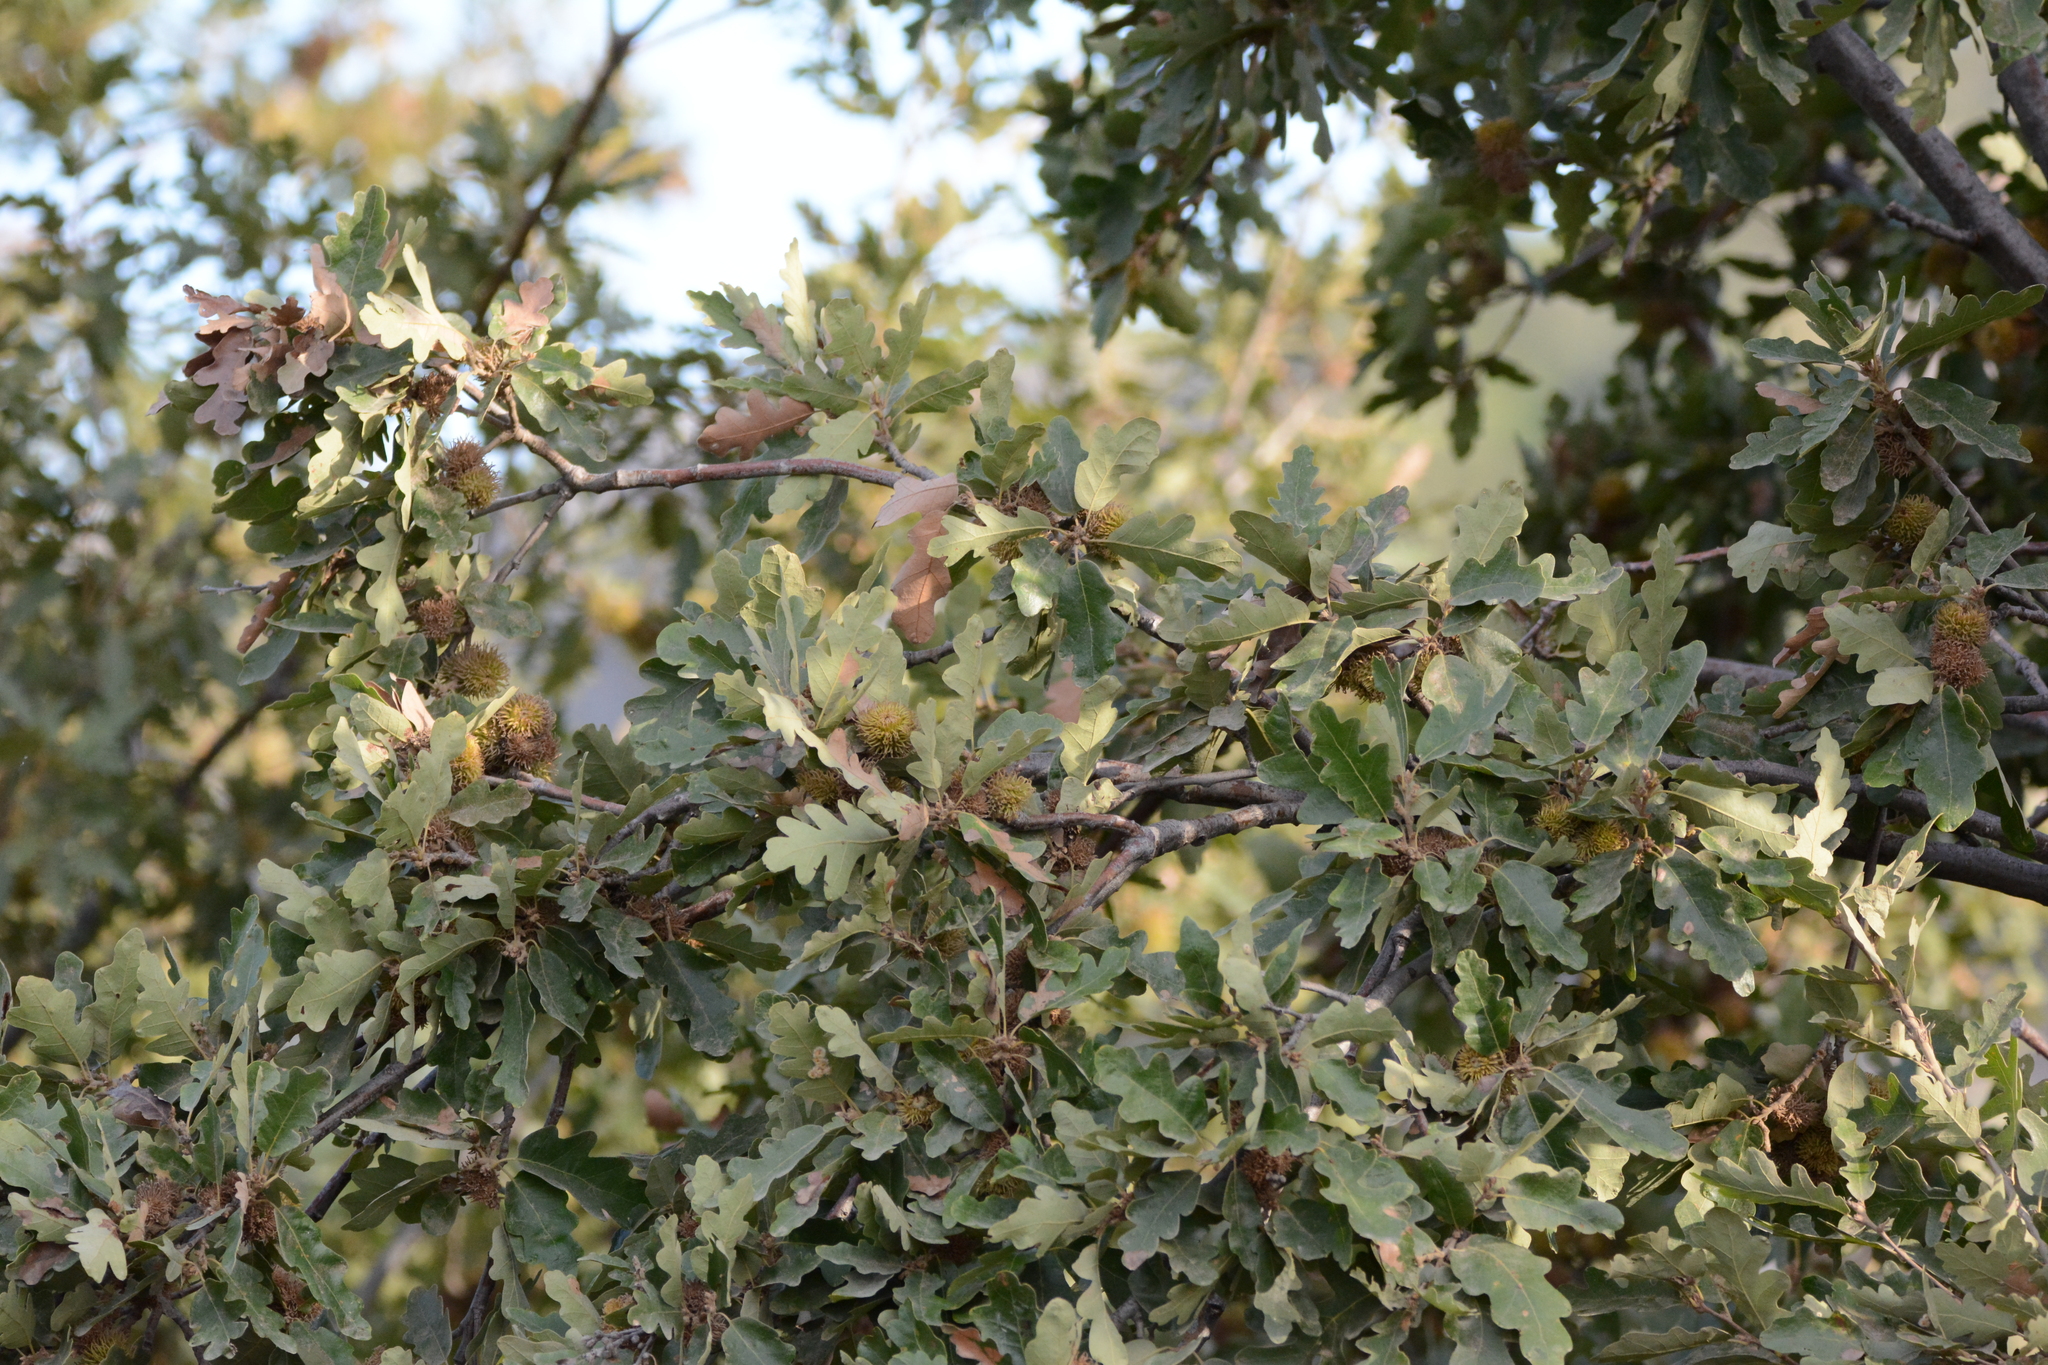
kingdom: Plantae
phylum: Tracheophyta
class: Magnoliopsida
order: Fagales
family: Fagaceae
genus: Quercus
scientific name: Quercus cerris
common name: Turkey oak
